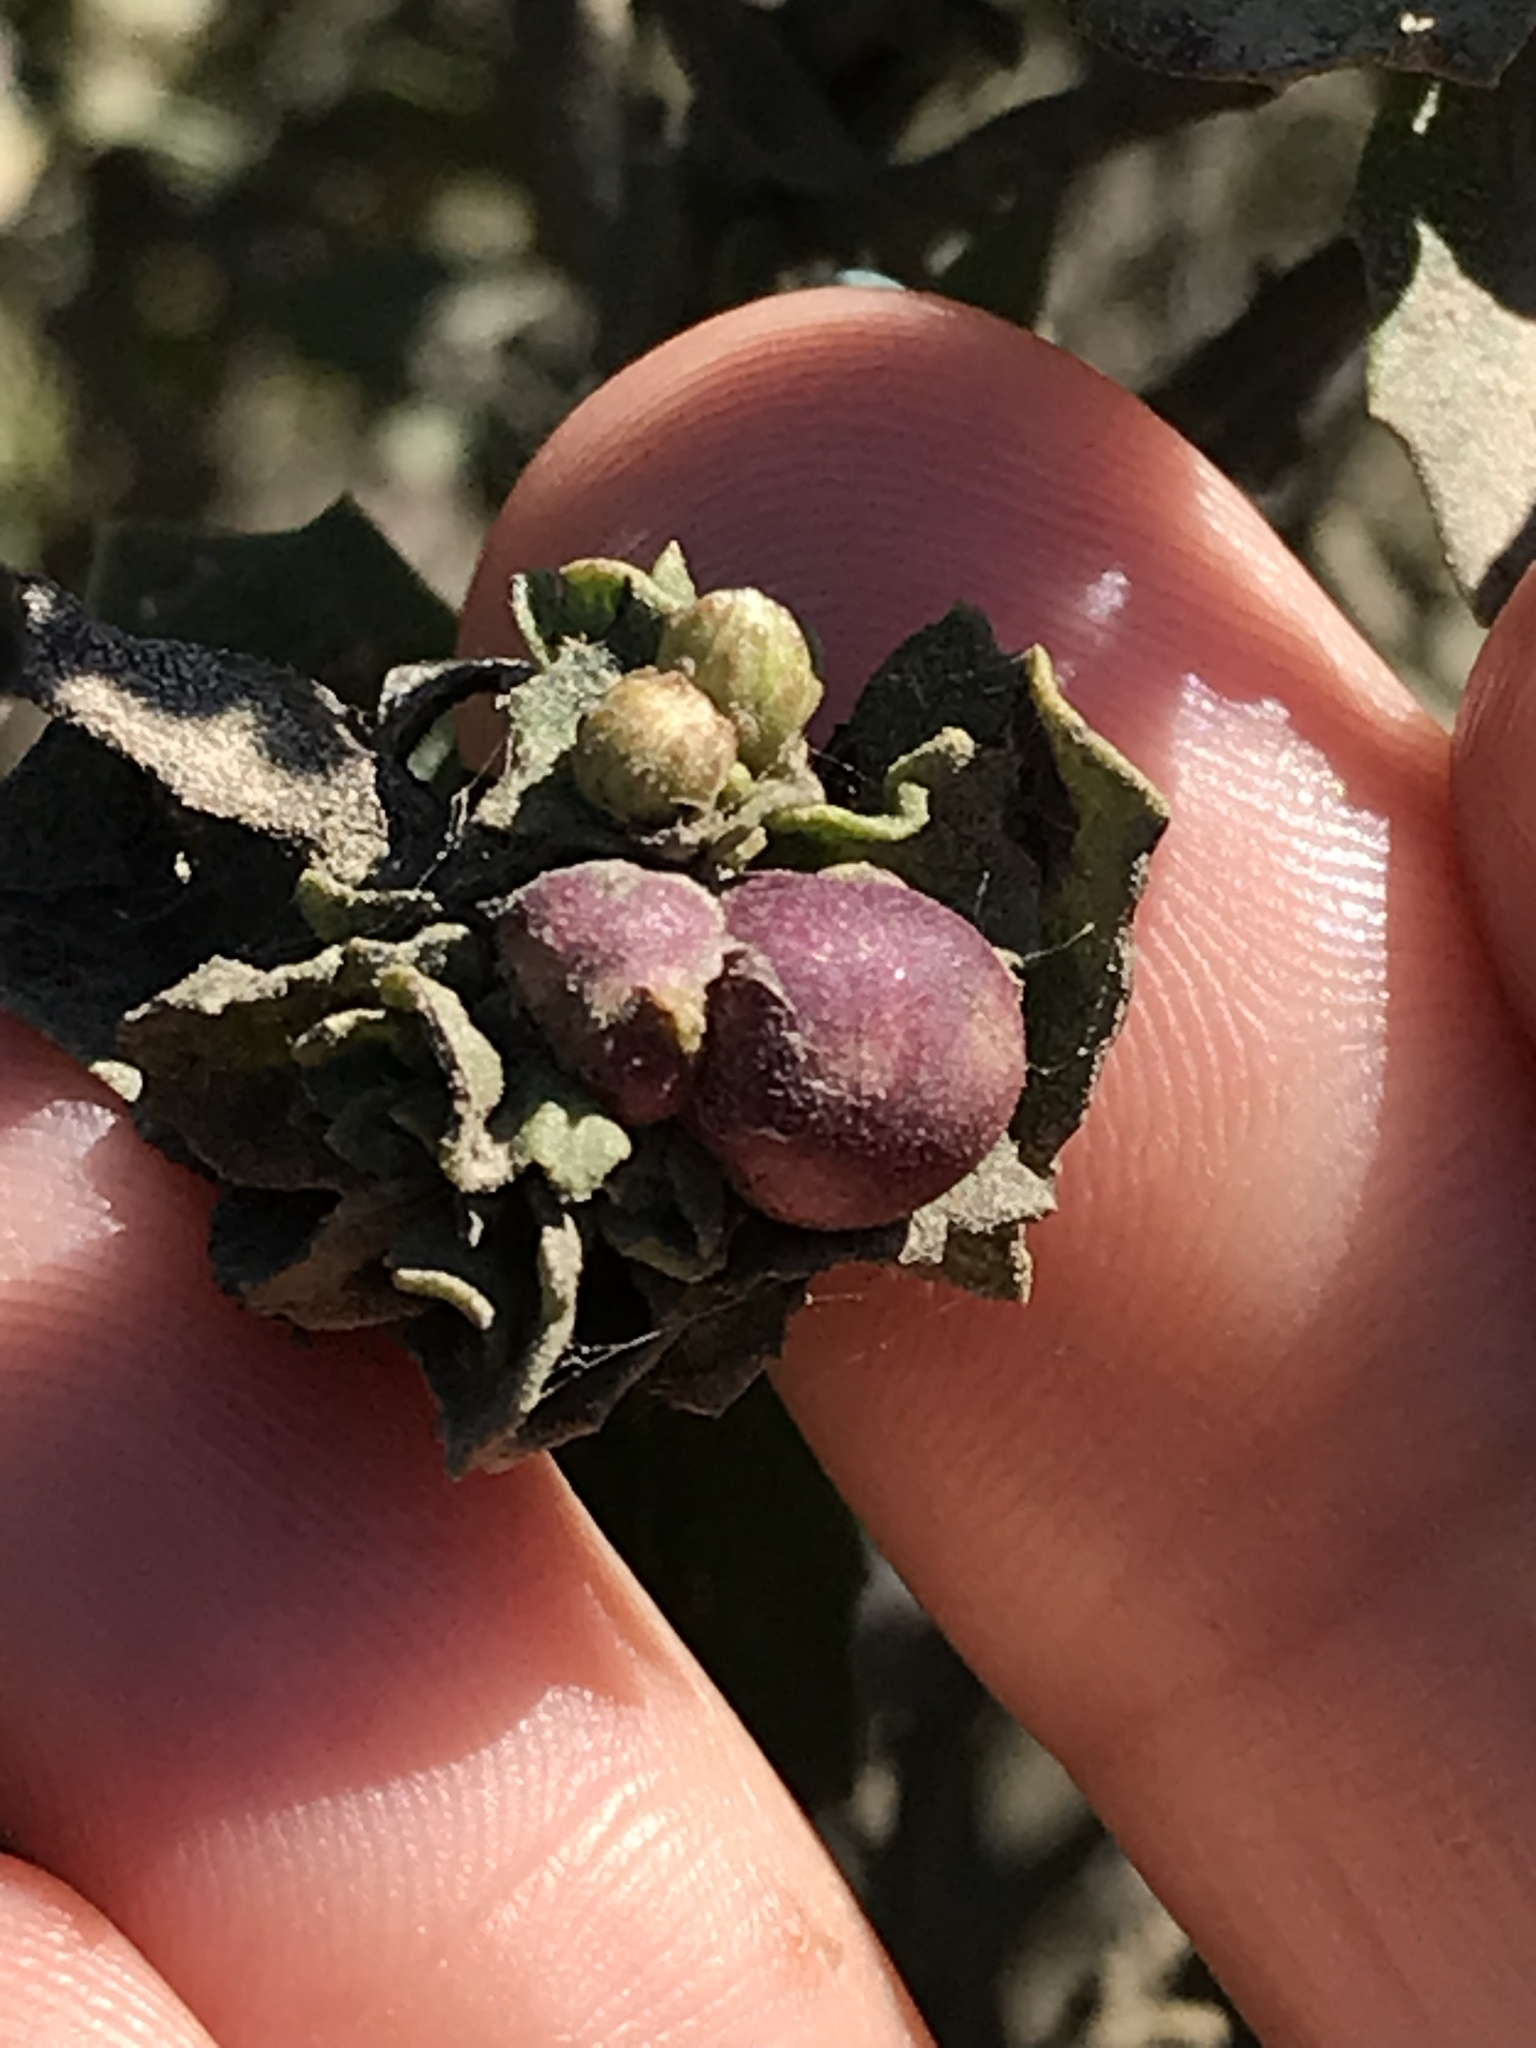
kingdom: Animalia
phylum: Arthropoda
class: Insecta
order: Diptera
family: Cecidomyiidae
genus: Rhopalomyia
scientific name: Rhopalomyia californica
